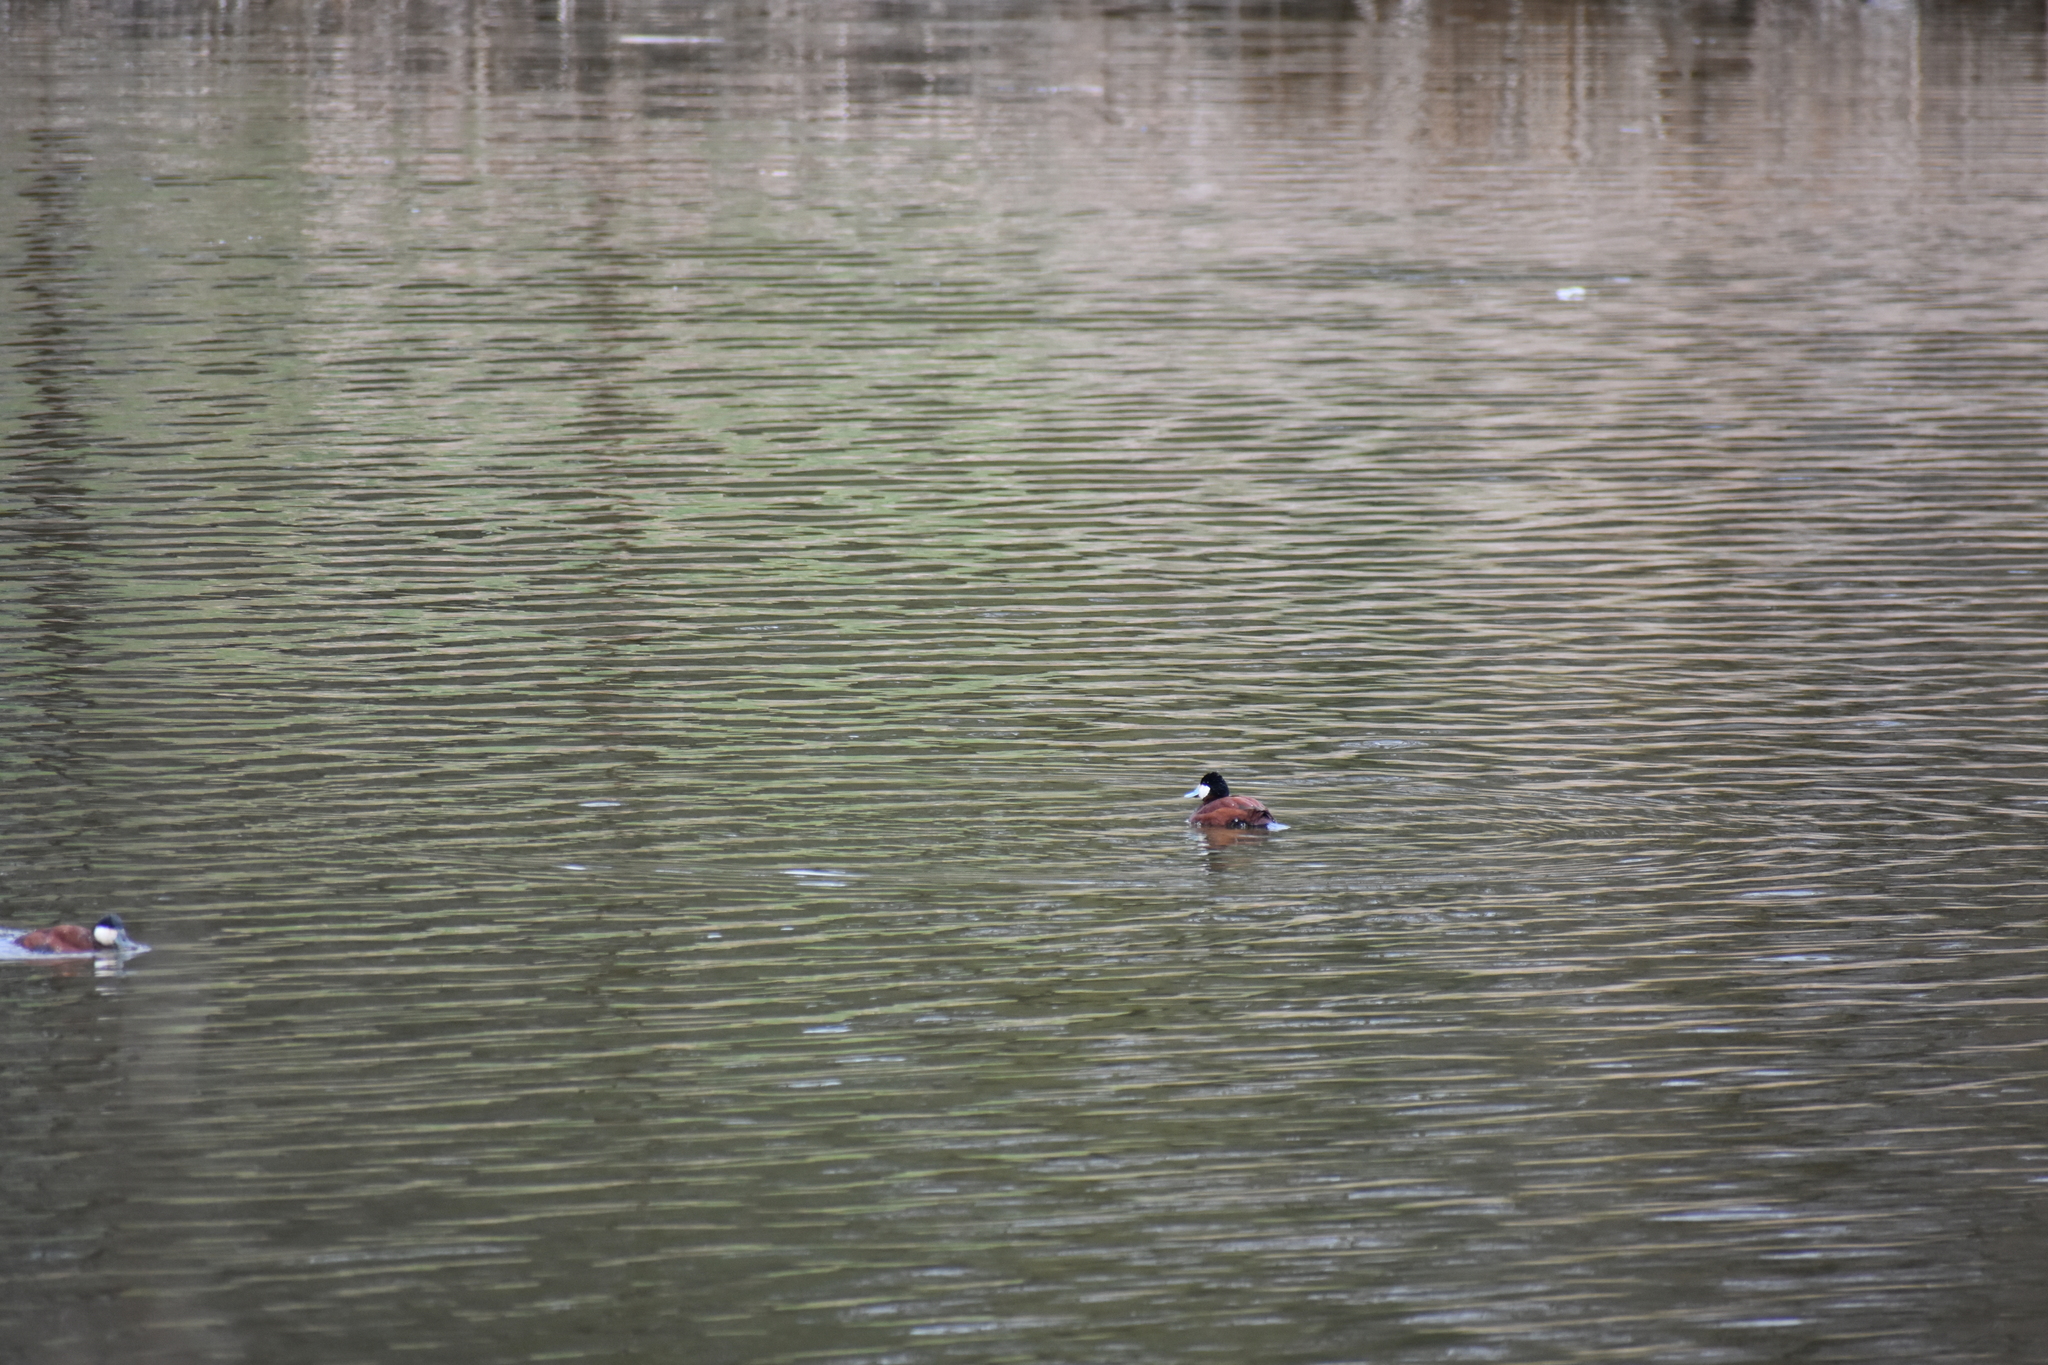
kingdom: Animalia
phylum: Chordata
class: Aves
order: Anseriformes
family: Anatidae
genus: Oxyura
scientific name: Oxyura jamaicensis
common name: Ruddy duck
